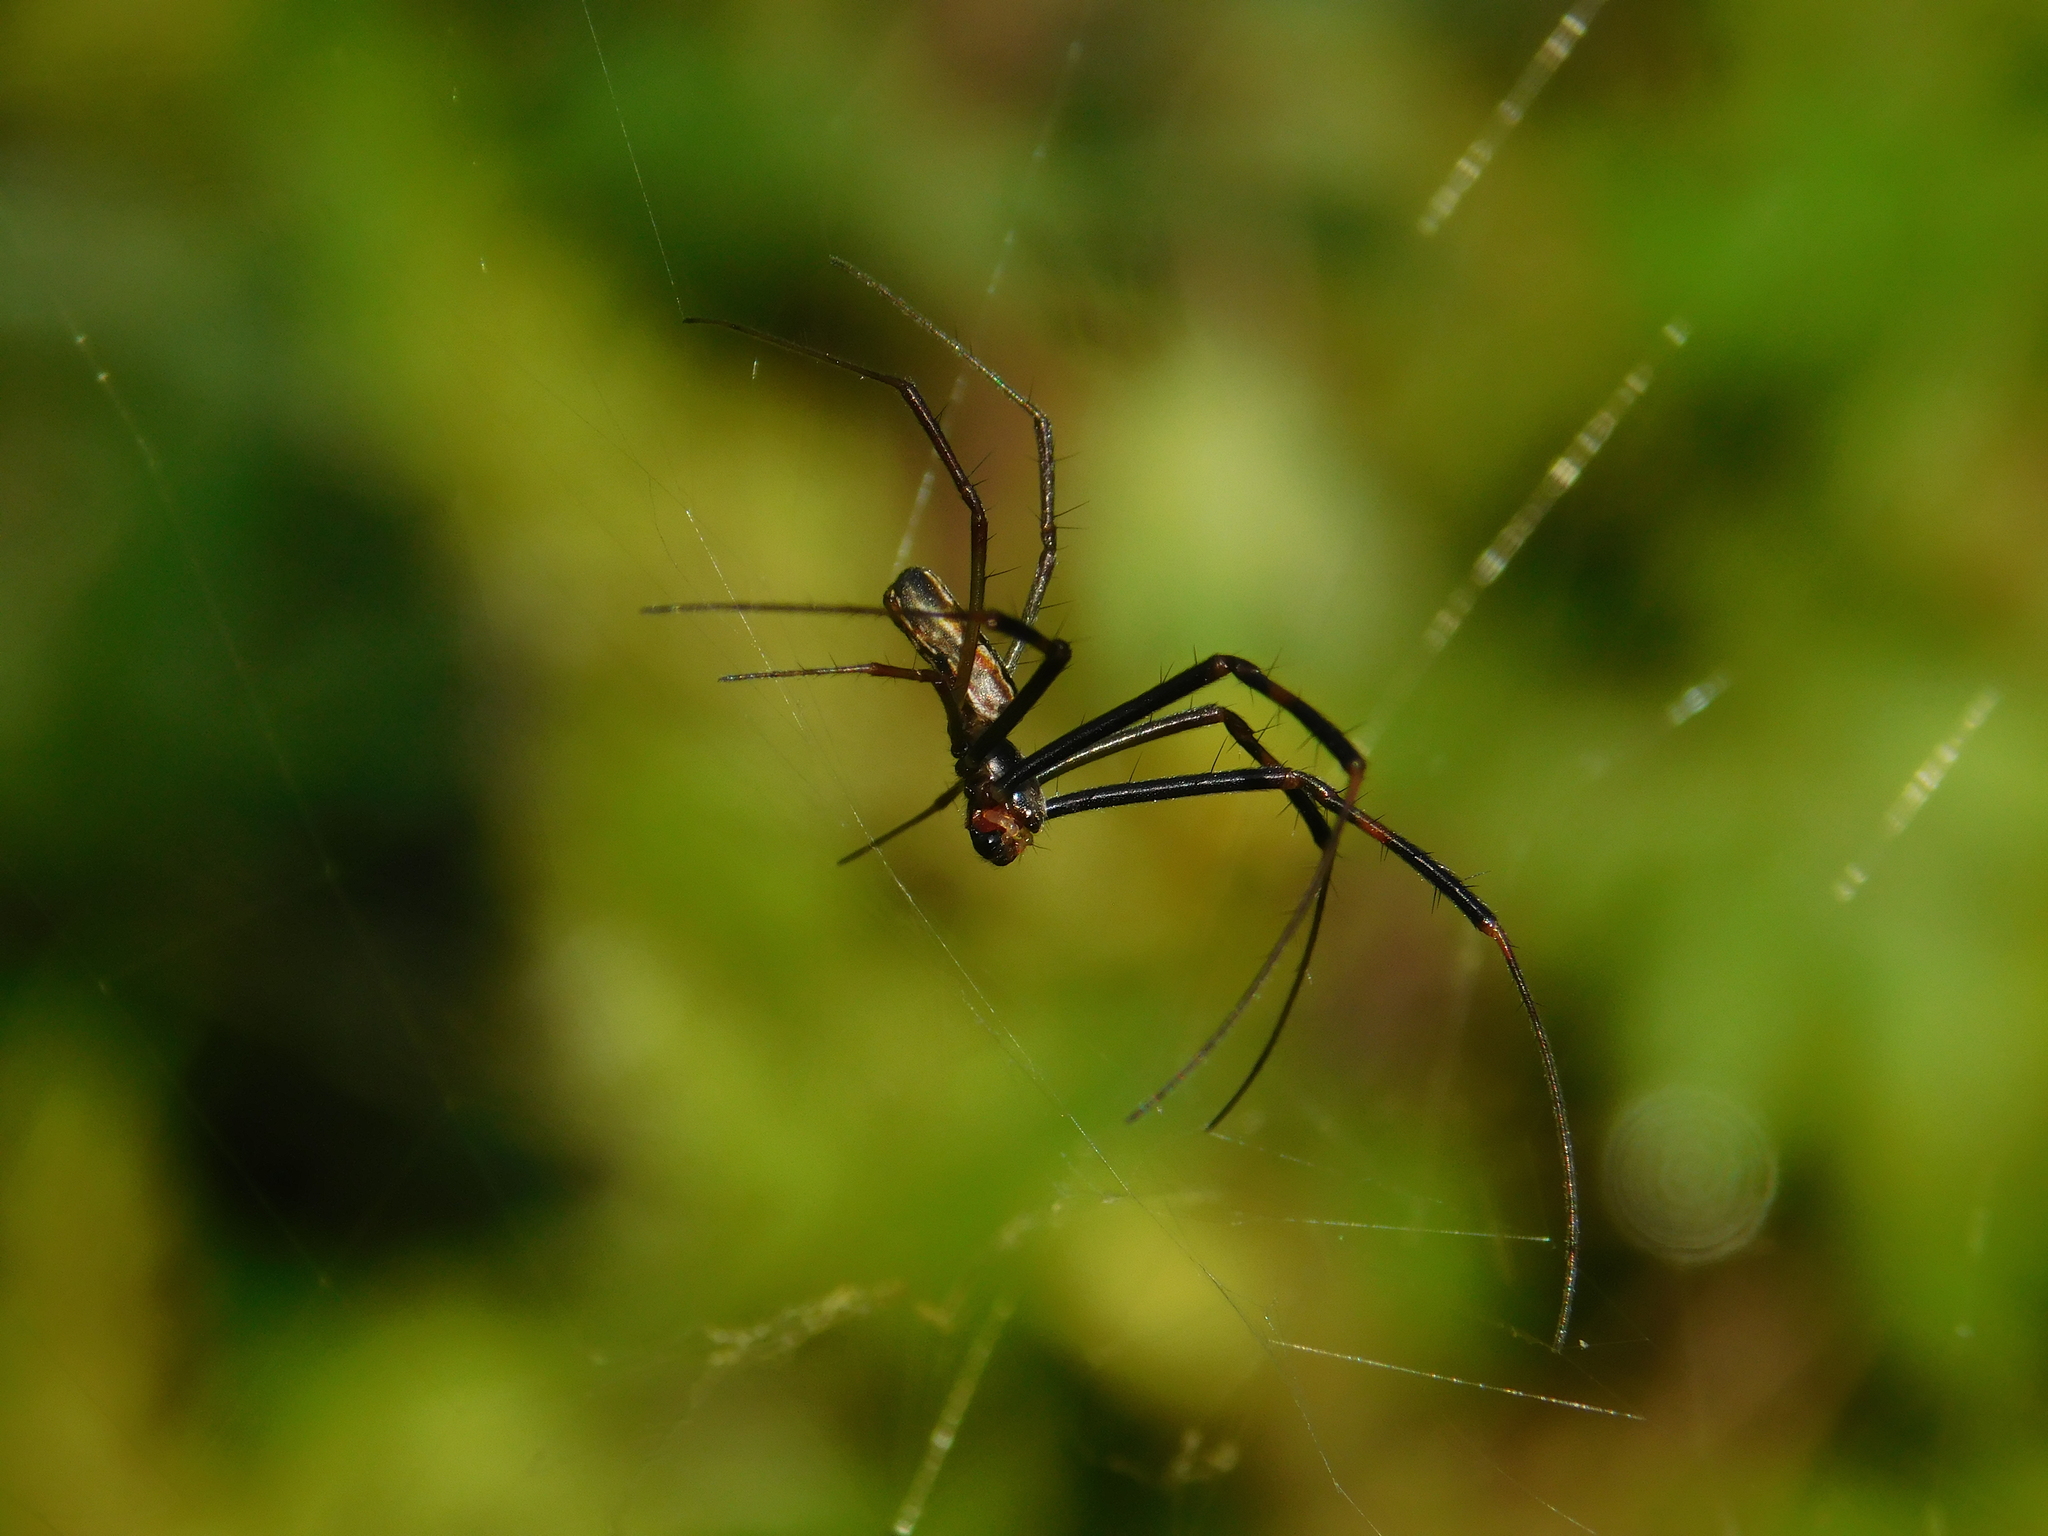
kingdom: Animalia
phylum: Arthropoda
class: Arachnida
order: Araneae
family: Araneidae
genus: Trichonephila
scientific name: Trichonephila clavipes
